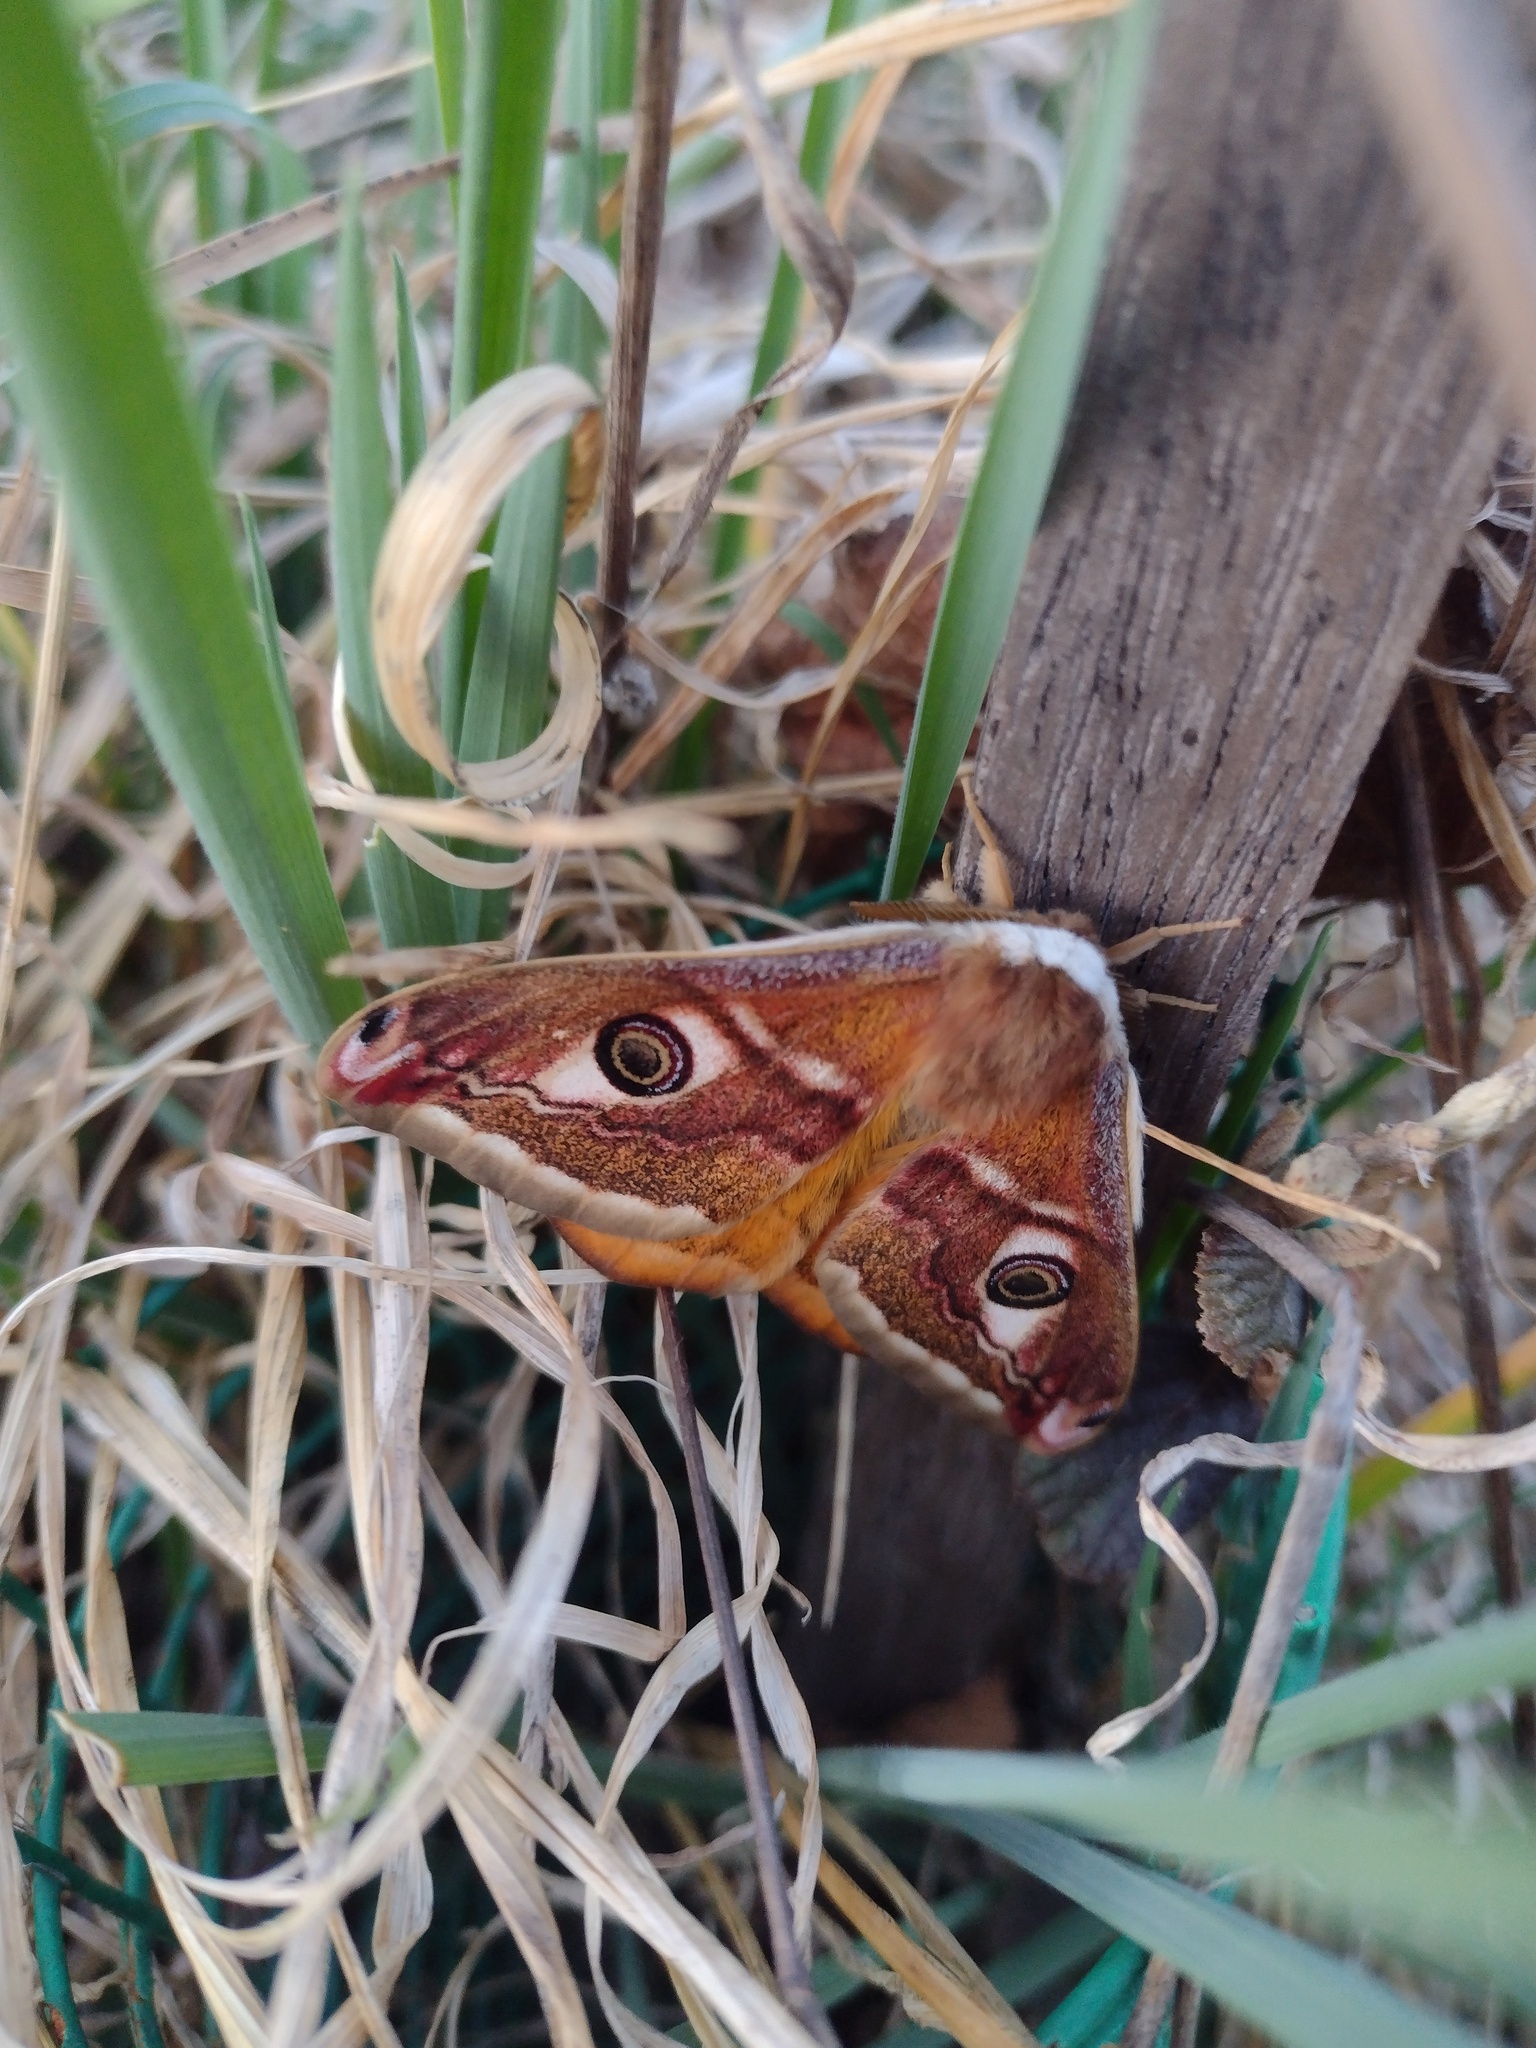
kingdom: Animalia
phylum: Arthropoda
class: Insecta
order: Lepidoptera
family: Saturniidae
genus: Saturnia
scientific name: Saturnia pavoniella
